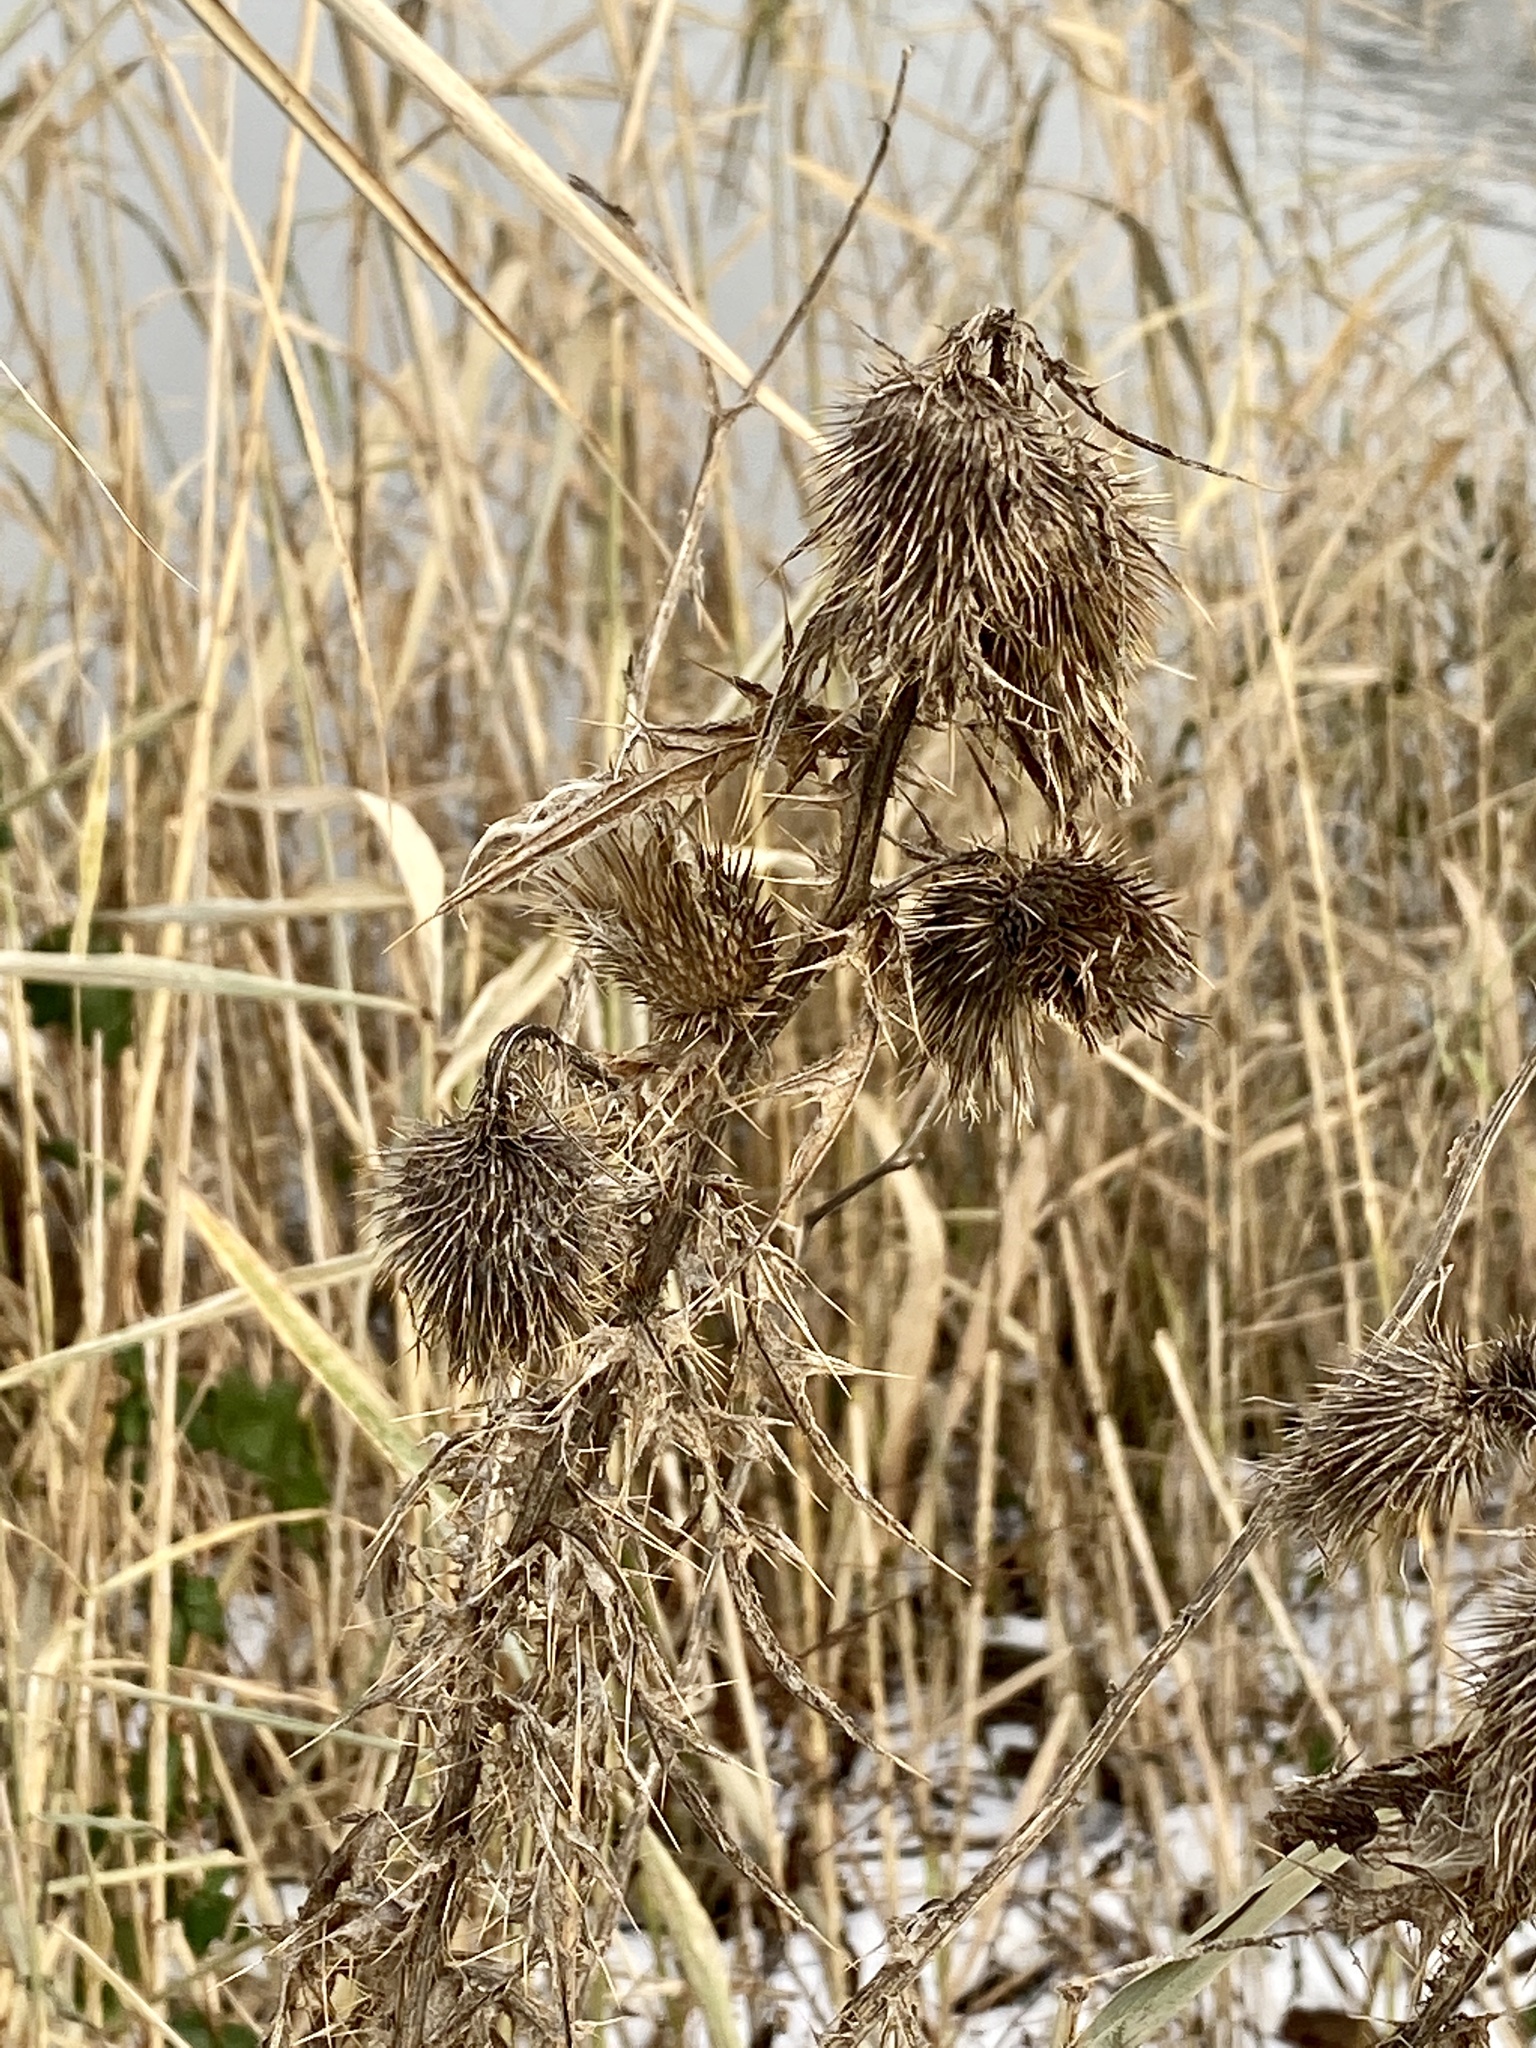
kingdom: Plantae
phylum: Tracheophyta
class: Magnoliopsida
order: Asterales
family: Asteraceae
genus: Cirsium
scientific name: Cirsium vulgare
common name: Bull thistle
